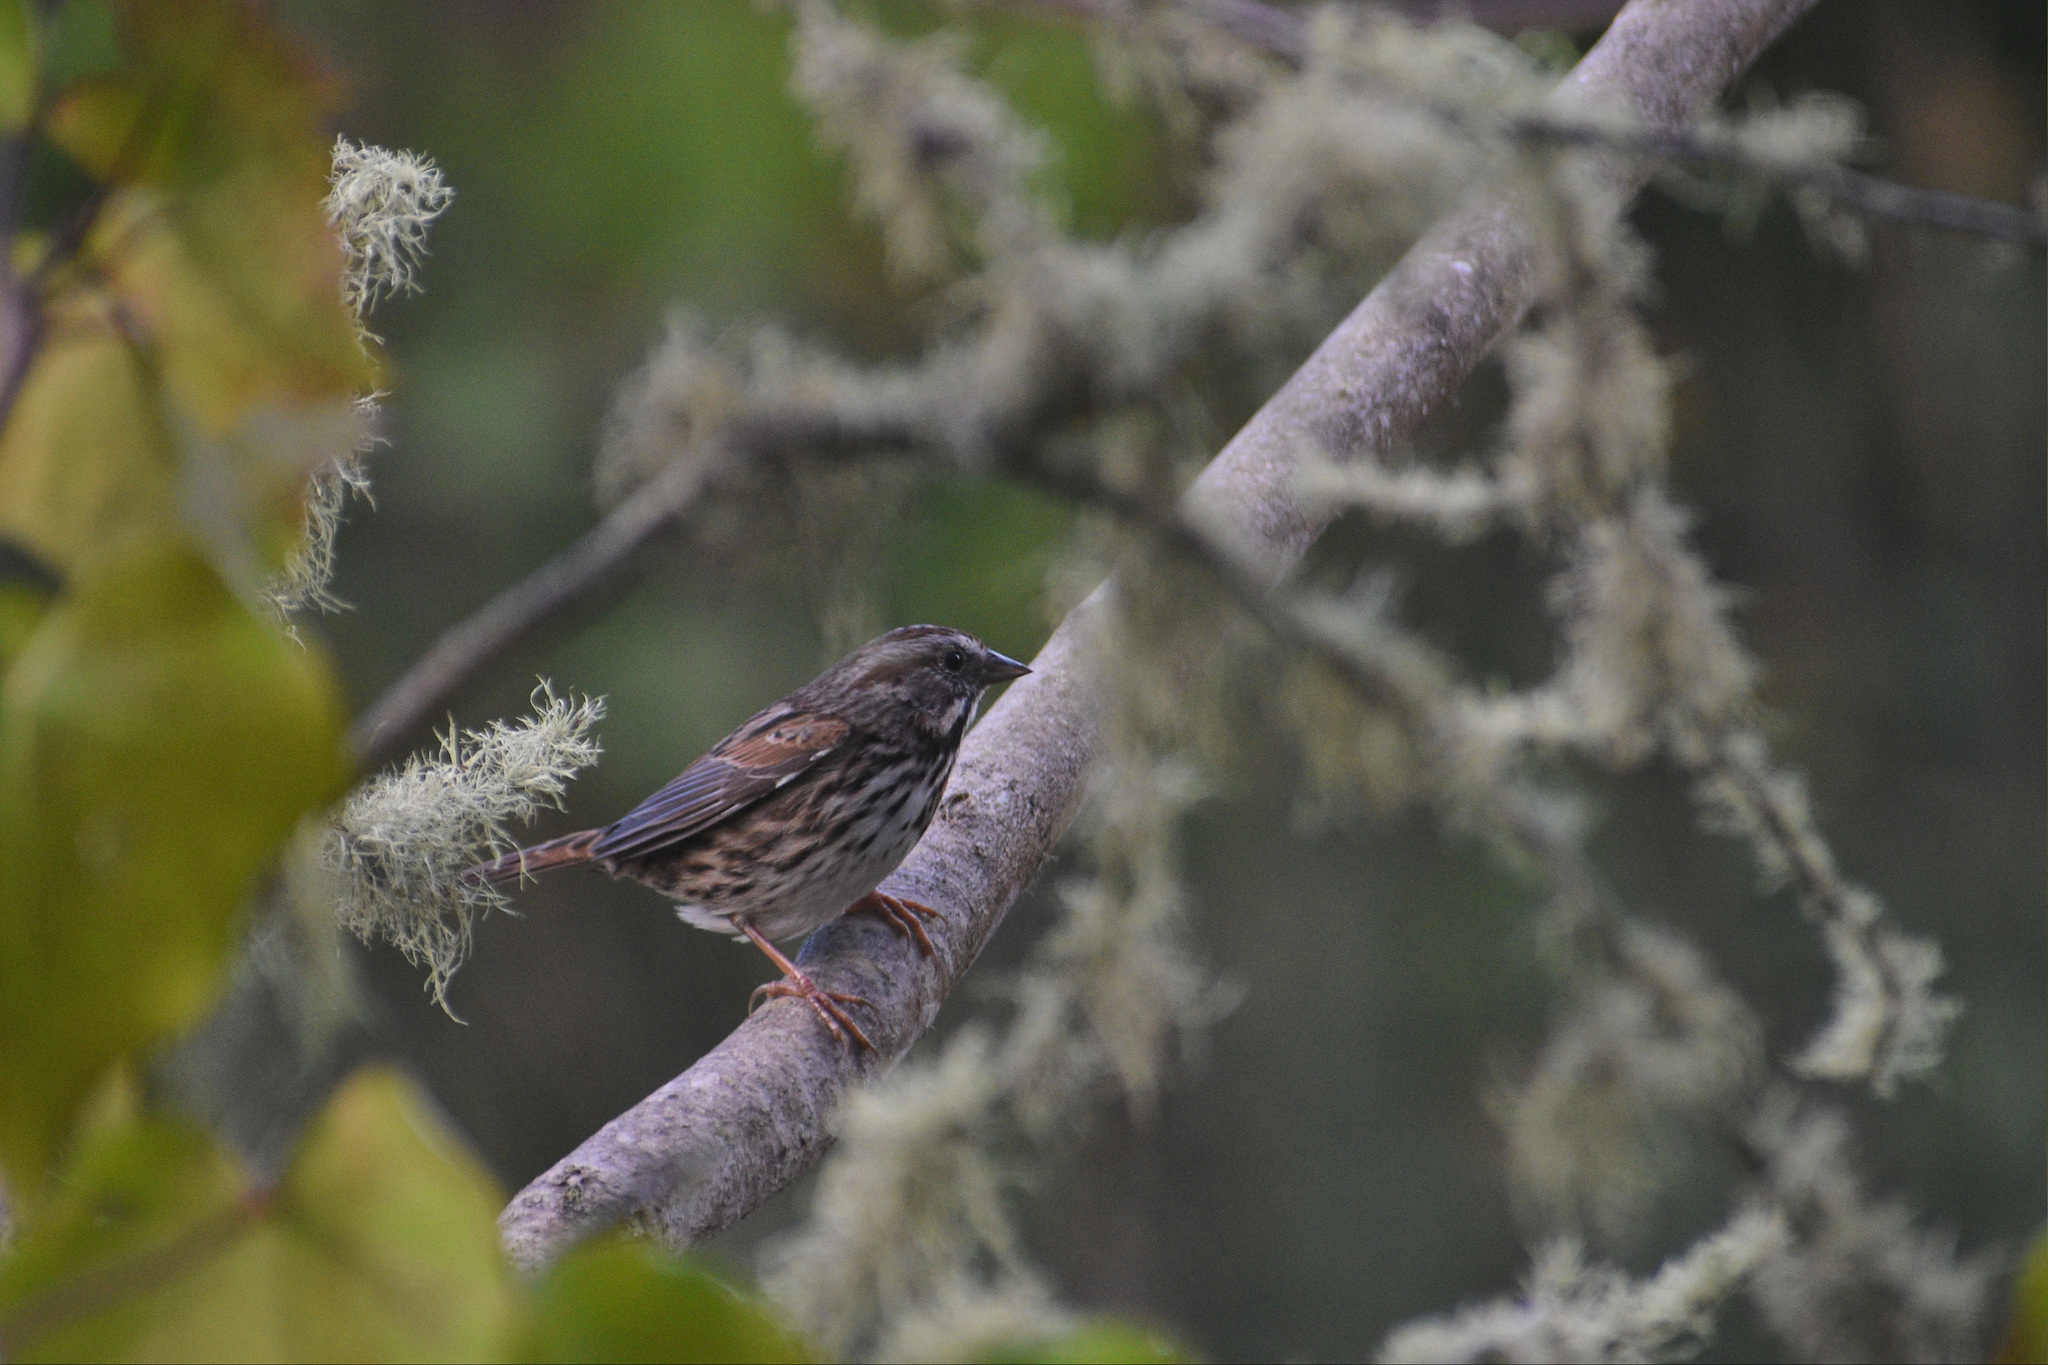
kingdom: Animalia
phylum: Chordata
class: Aves
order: Passeriformes
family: Passerellidae
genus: Melospiza
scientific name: Melospiza melodia
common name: Song sparrow
